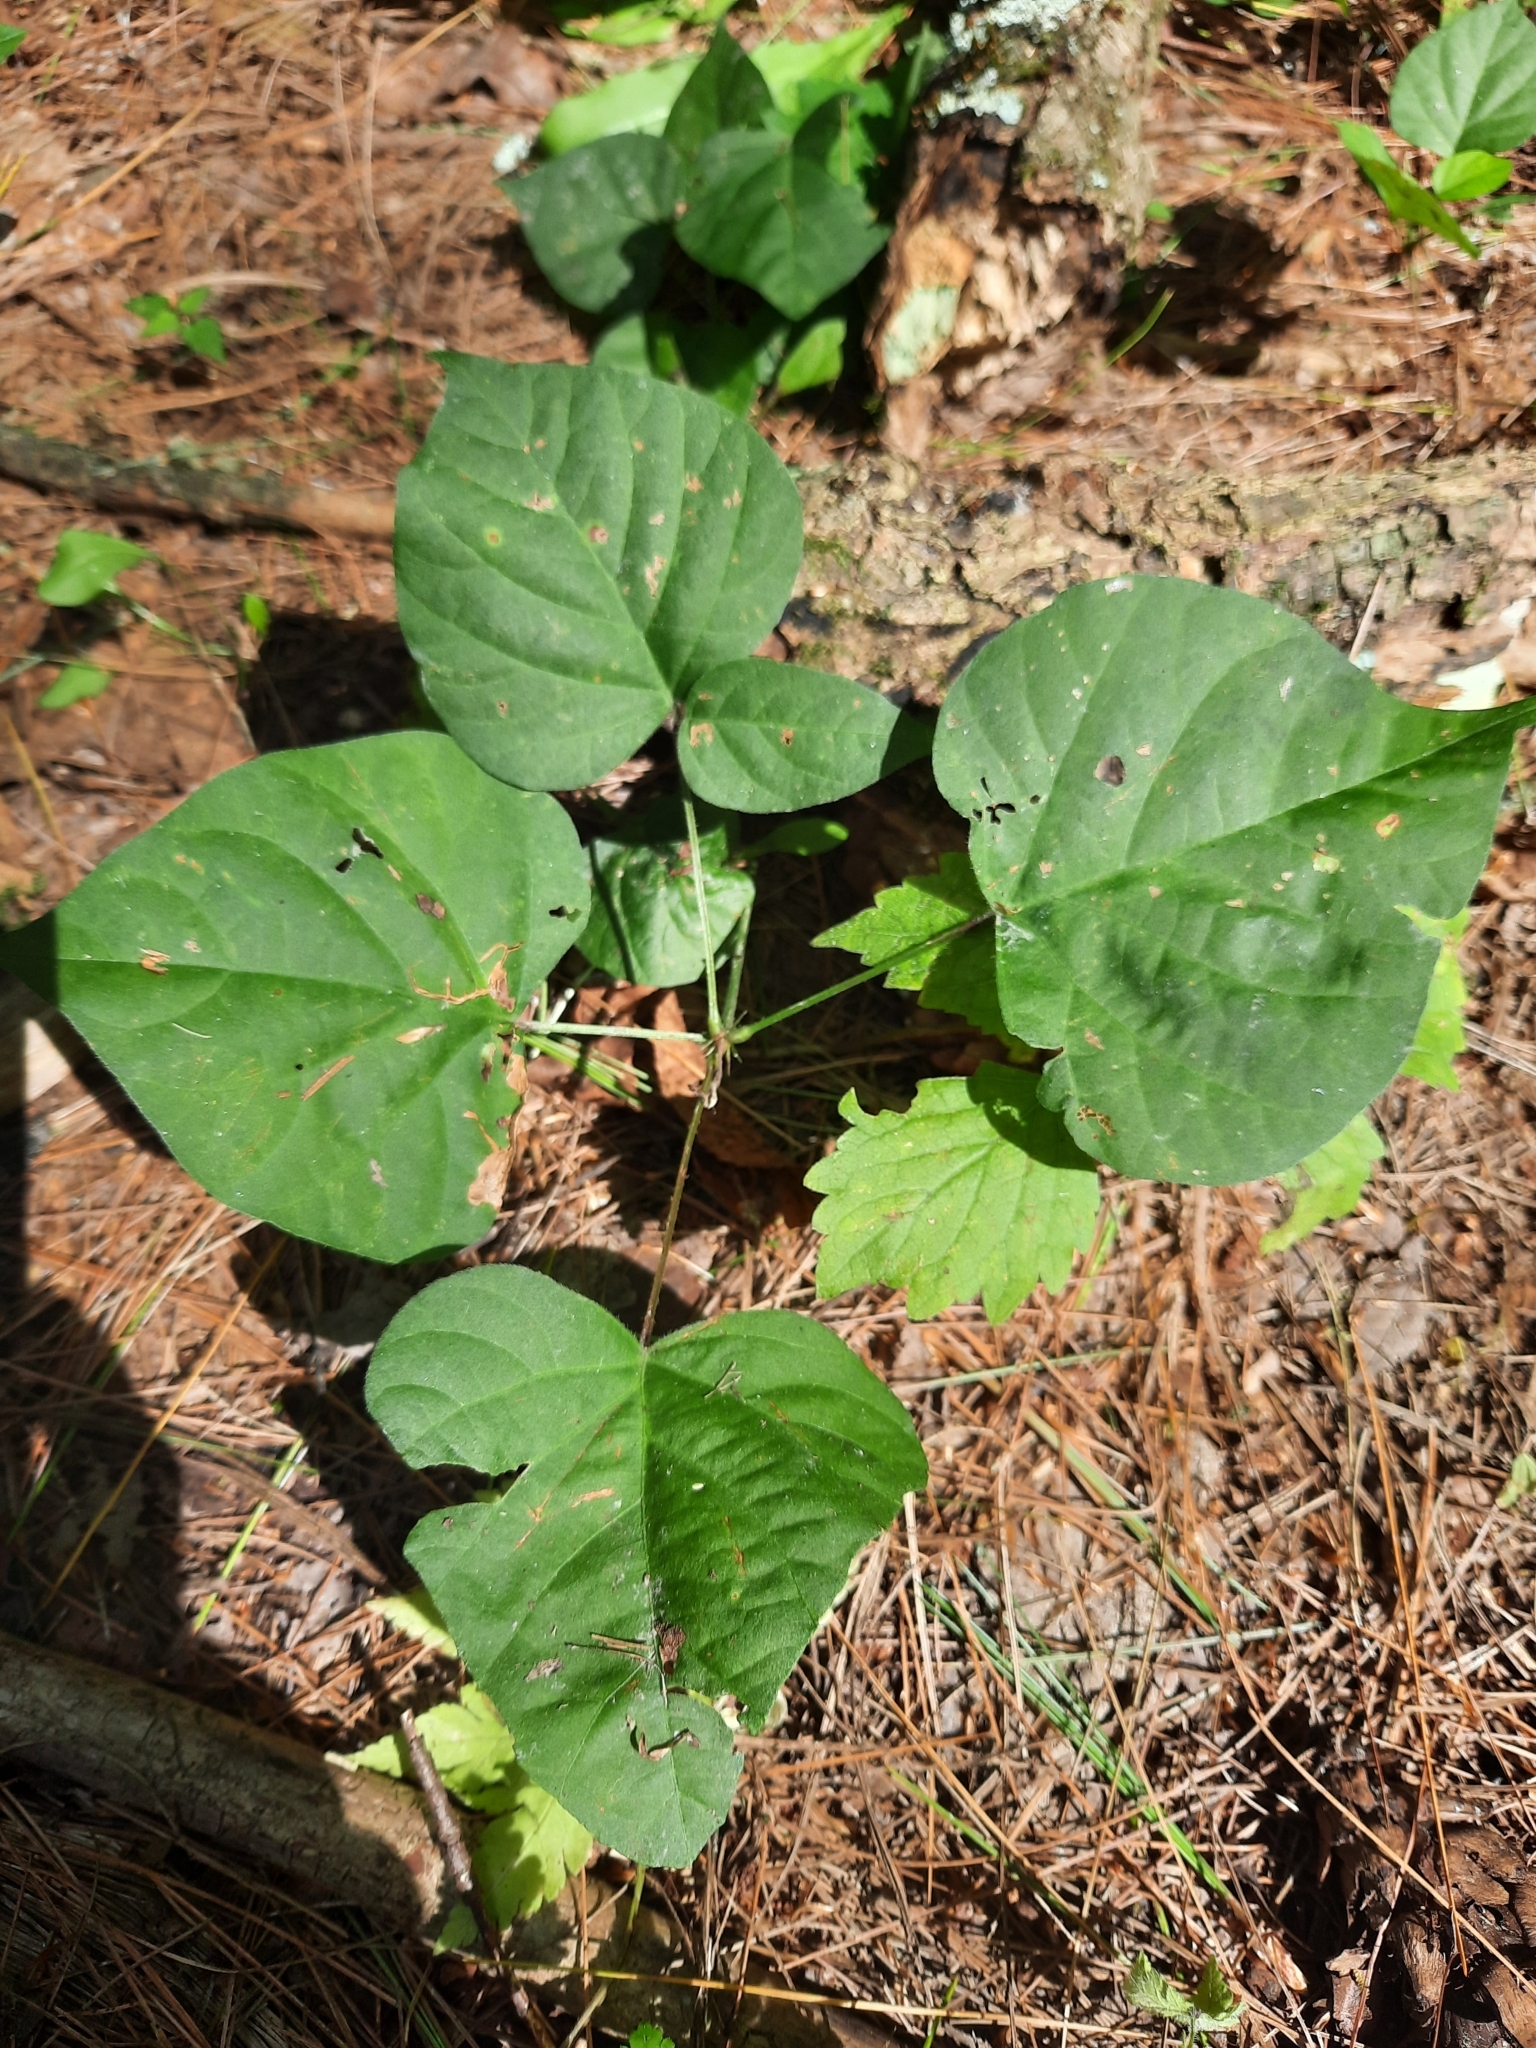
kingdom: Plantae
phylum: Tracheophyta
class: Magnoliopsida
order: Fabales
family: Fabaceae
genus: Hylodesmum
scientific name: Hylodesmum glutinosum
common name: Clustered-leaved tick-trefoil
